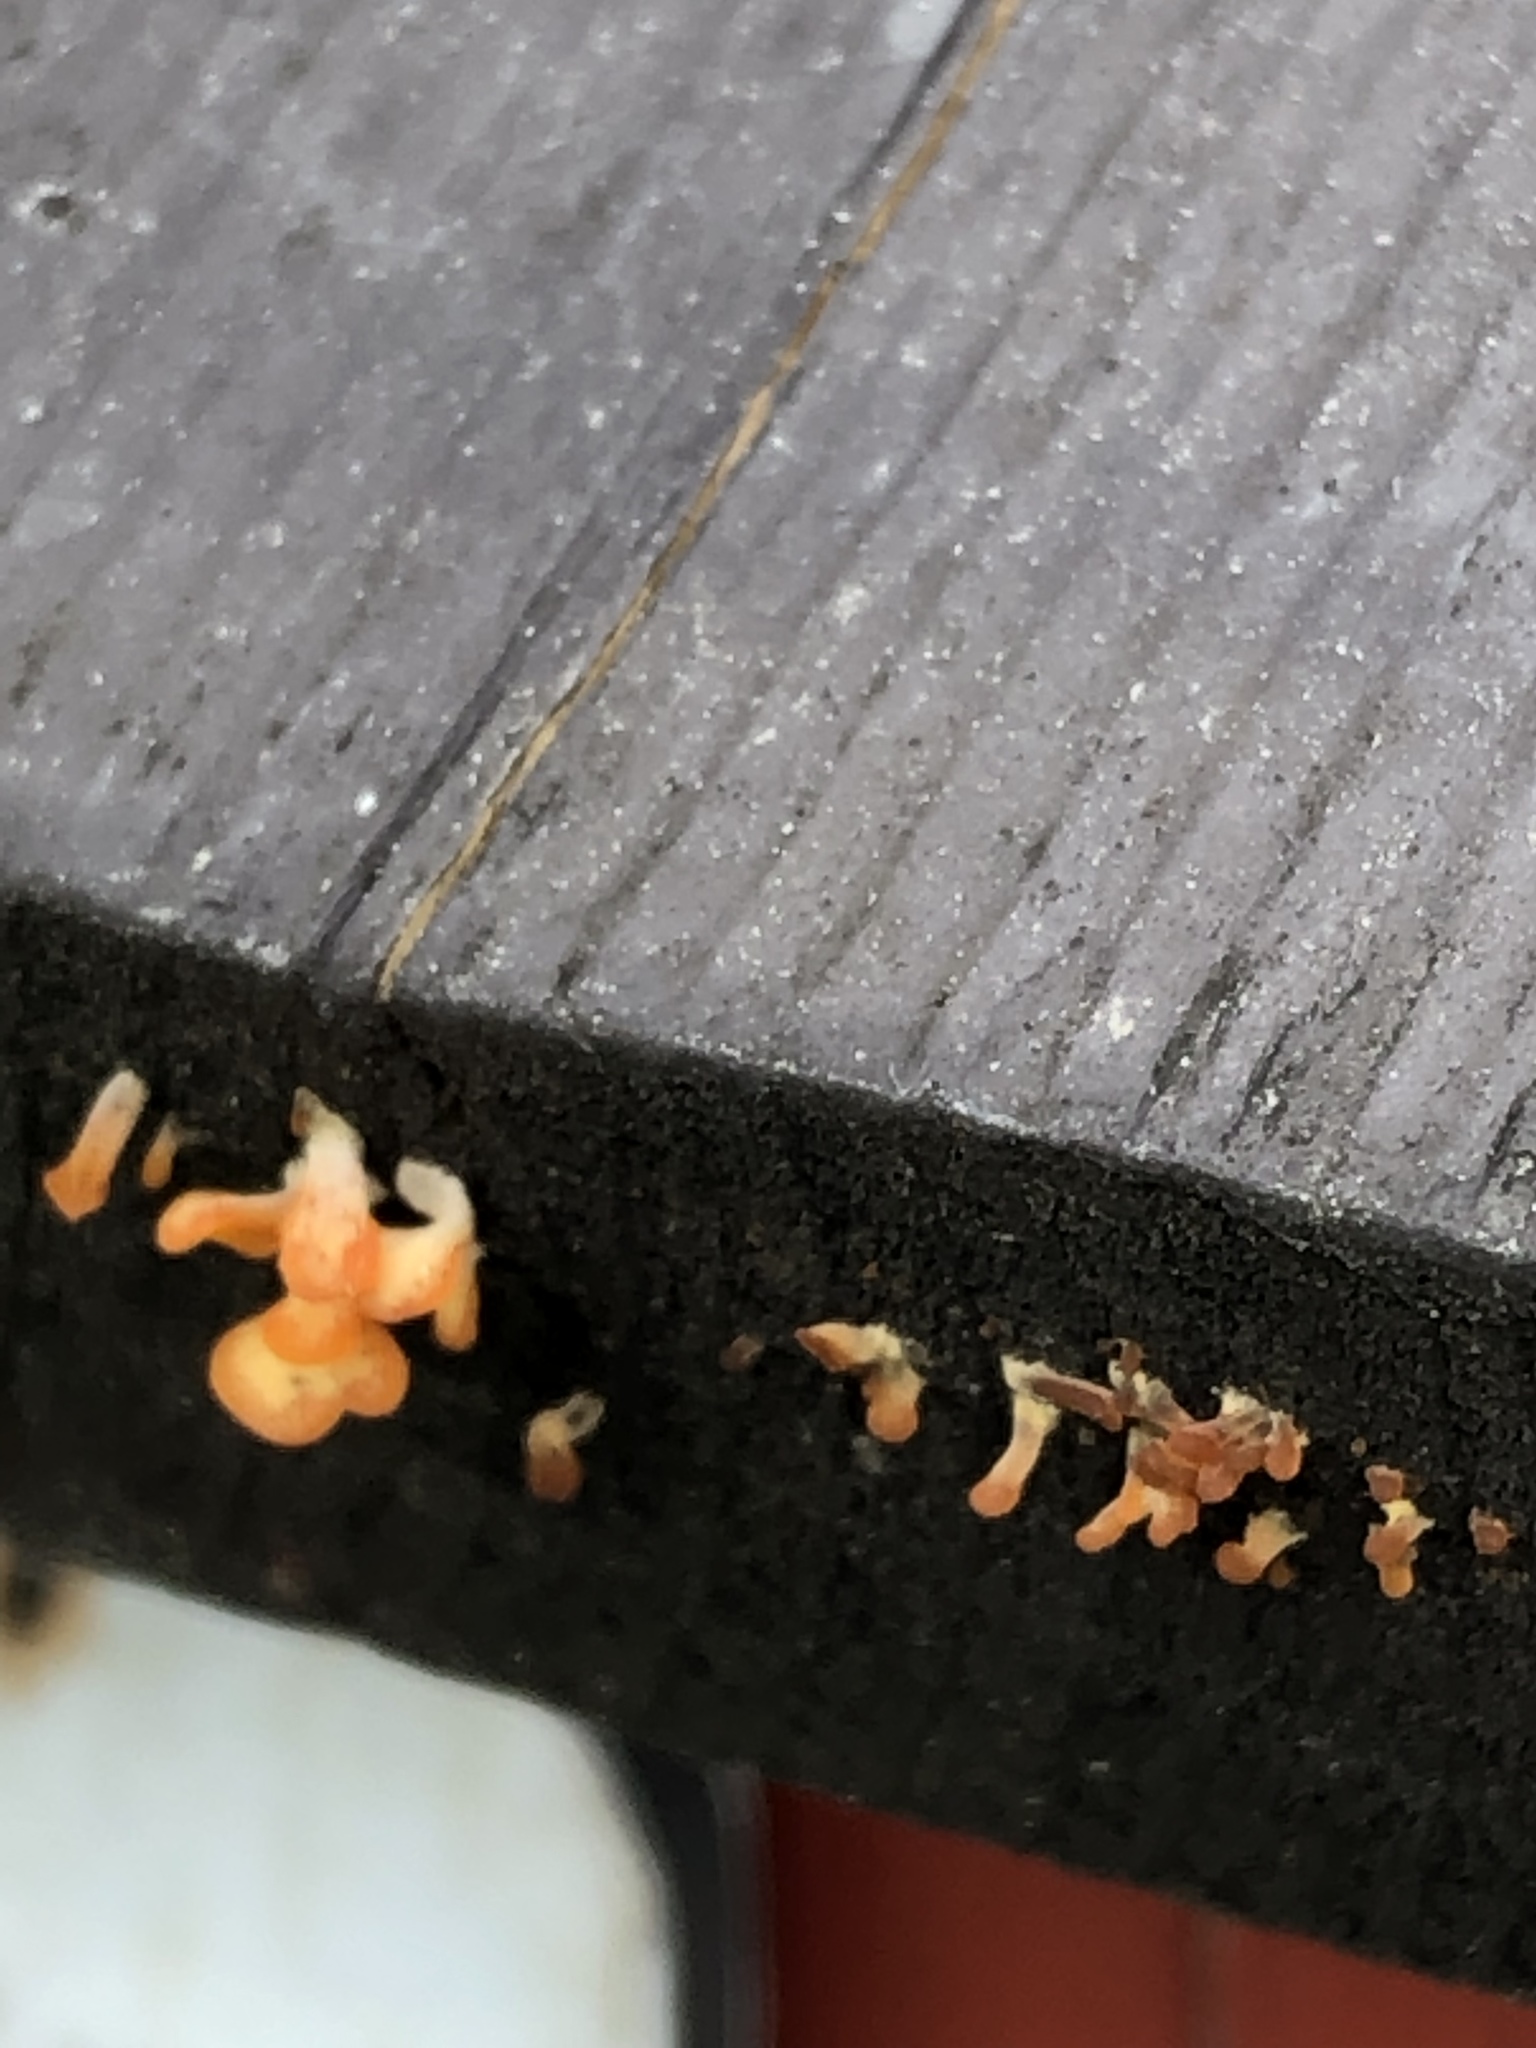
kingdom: Fungi
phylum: Basidiomycota
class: Dacrymycetes
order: Dacrymycetales
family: Dacrymycetaceae
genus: Calocera
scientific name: Calocera cornea
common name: Small stagshorn
